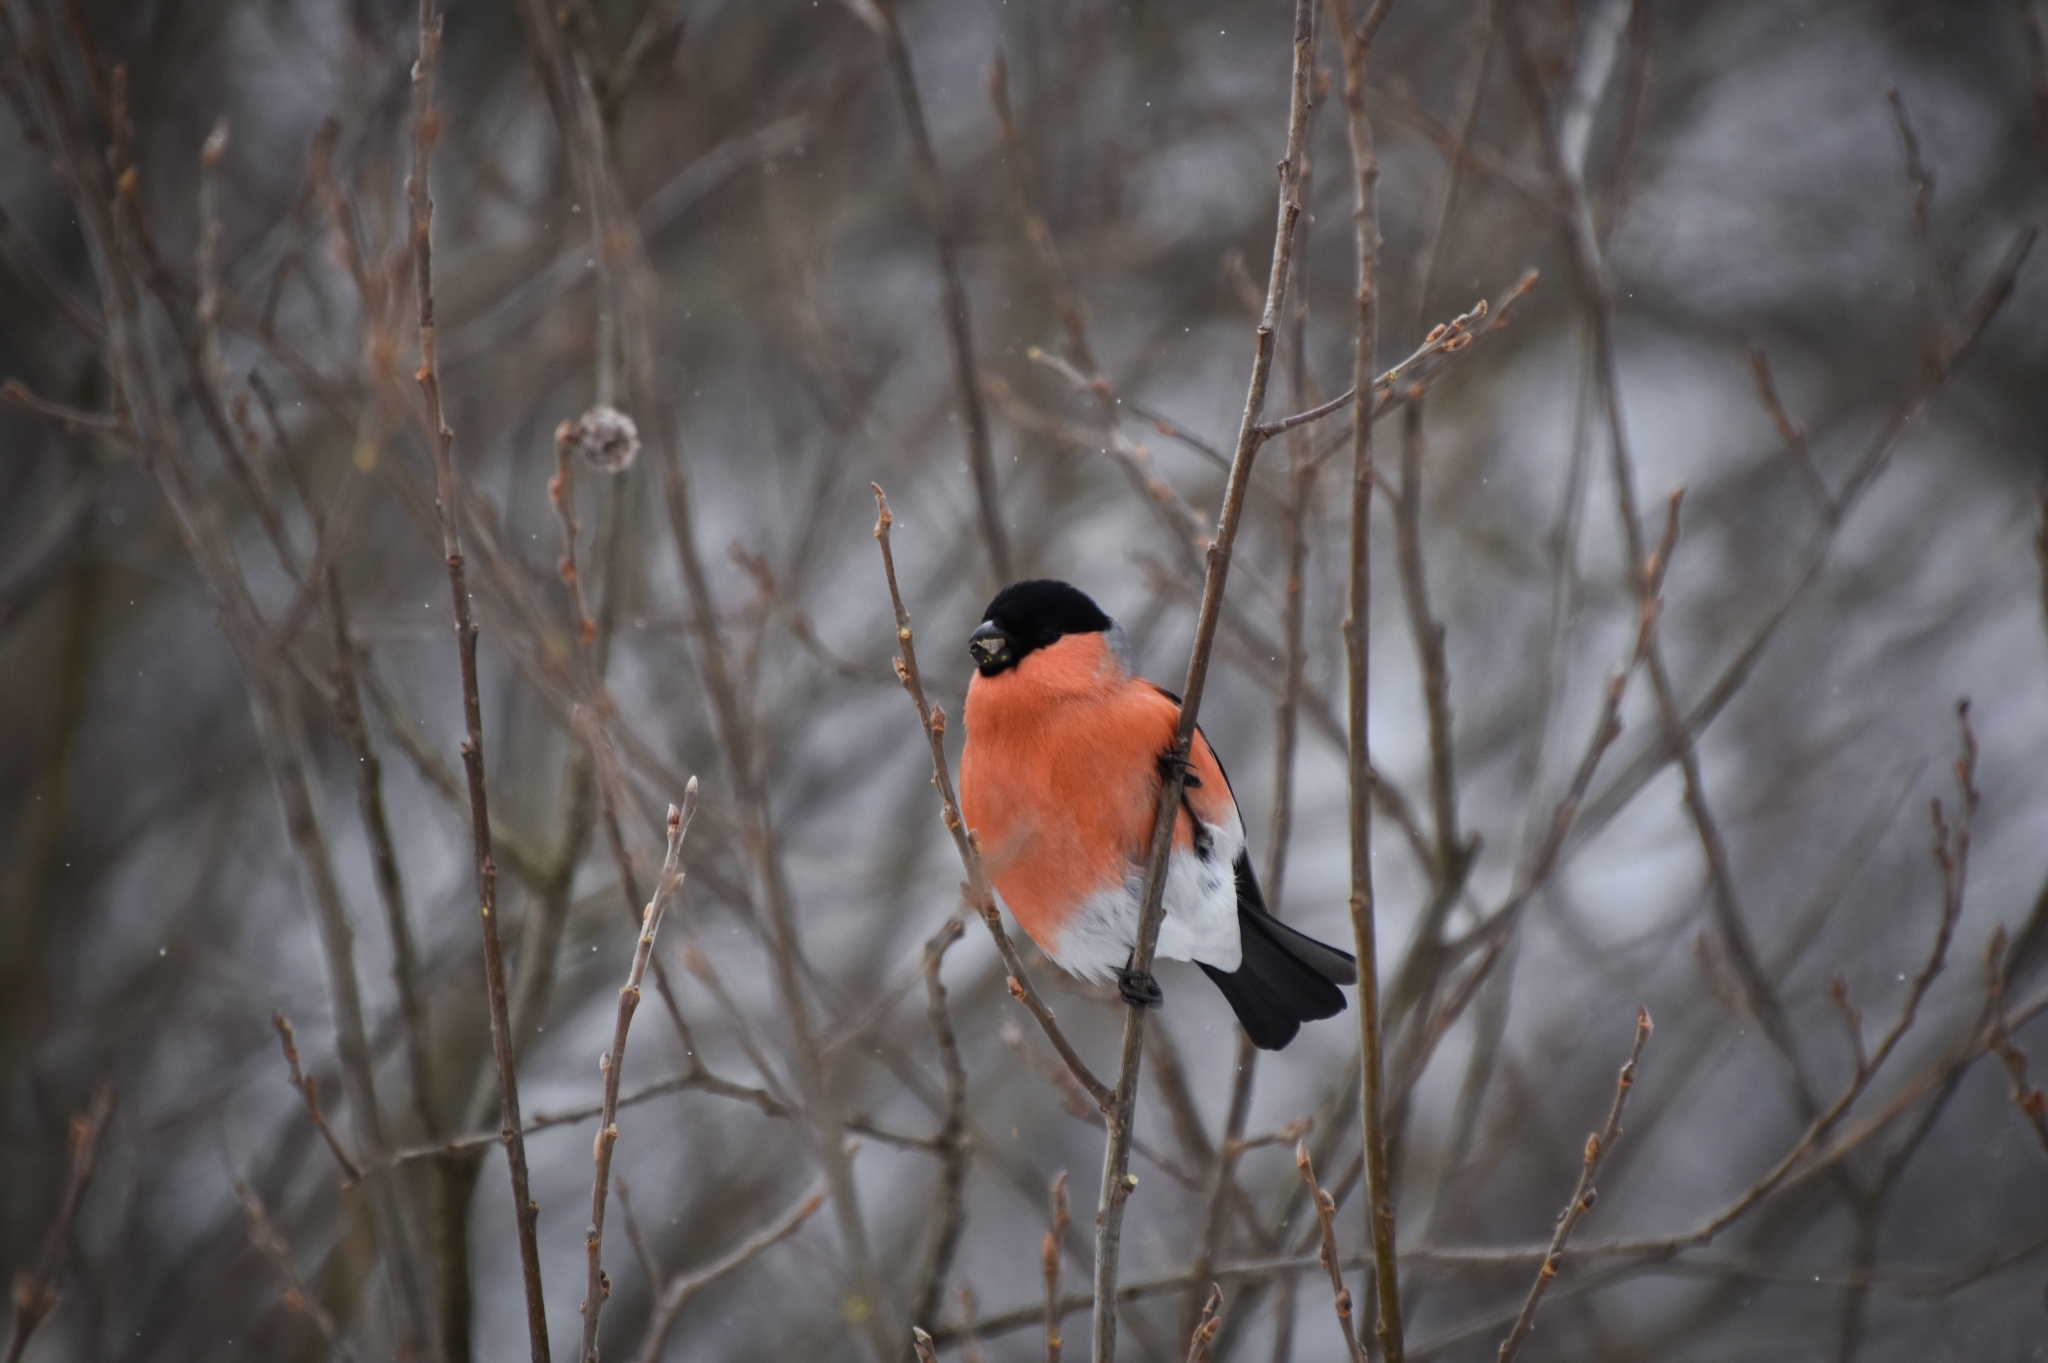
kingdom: Animalia
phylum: Chordata
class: Aves
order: Passeriformes
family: Fringillidae
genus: Pyrrhula
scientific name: Pyrrhula pyrrhula
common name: Eurasian bullfinch
